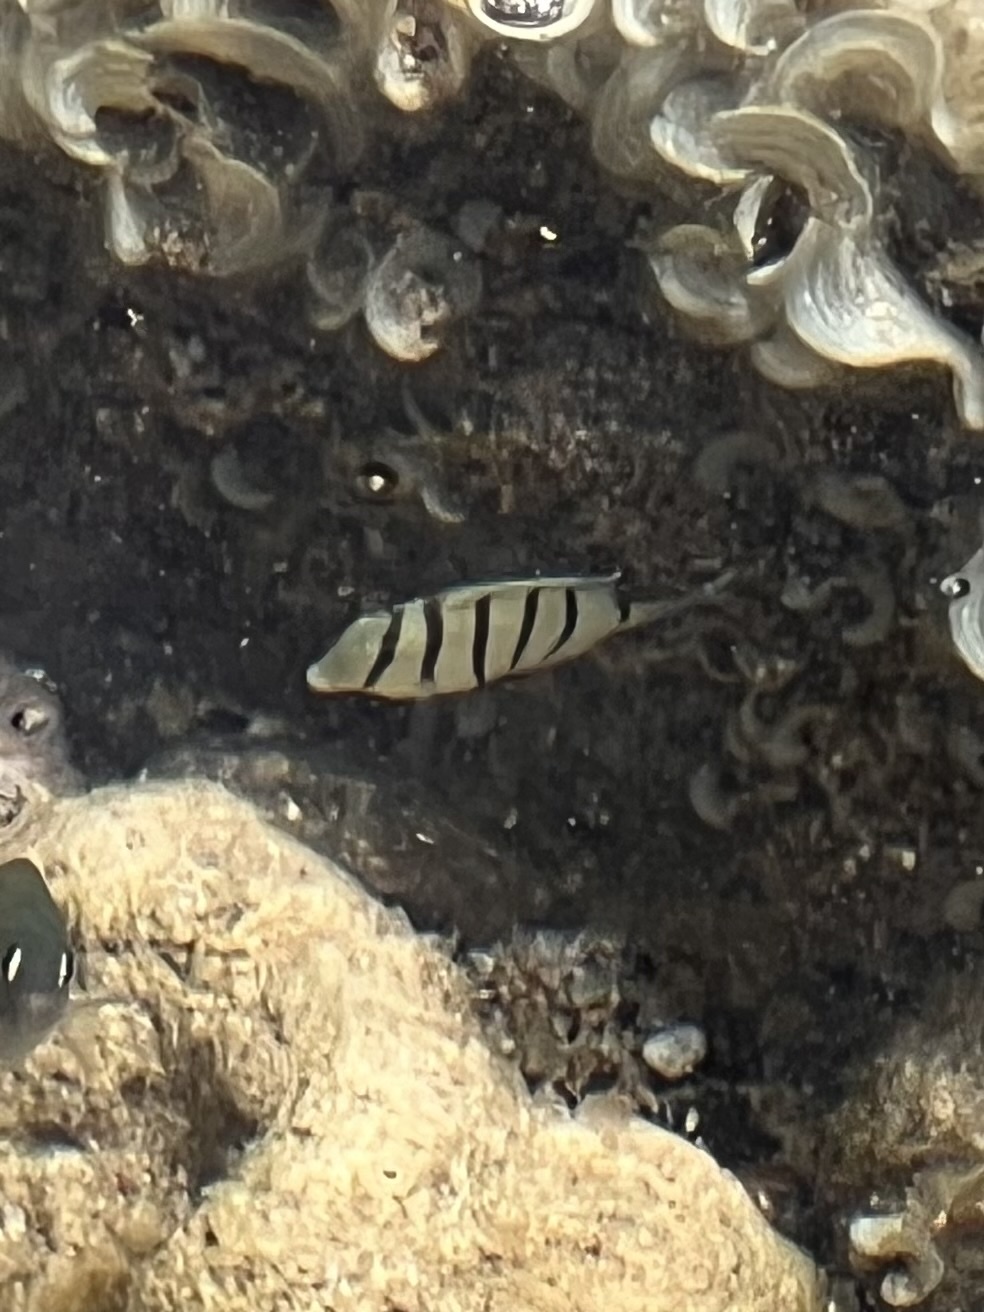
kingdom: Animalia
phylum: Chordata
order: Perciformes
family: Acanthuridae
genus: Acanthurus
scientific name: Acanthurus triostegus
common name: Convict surgeonfish
